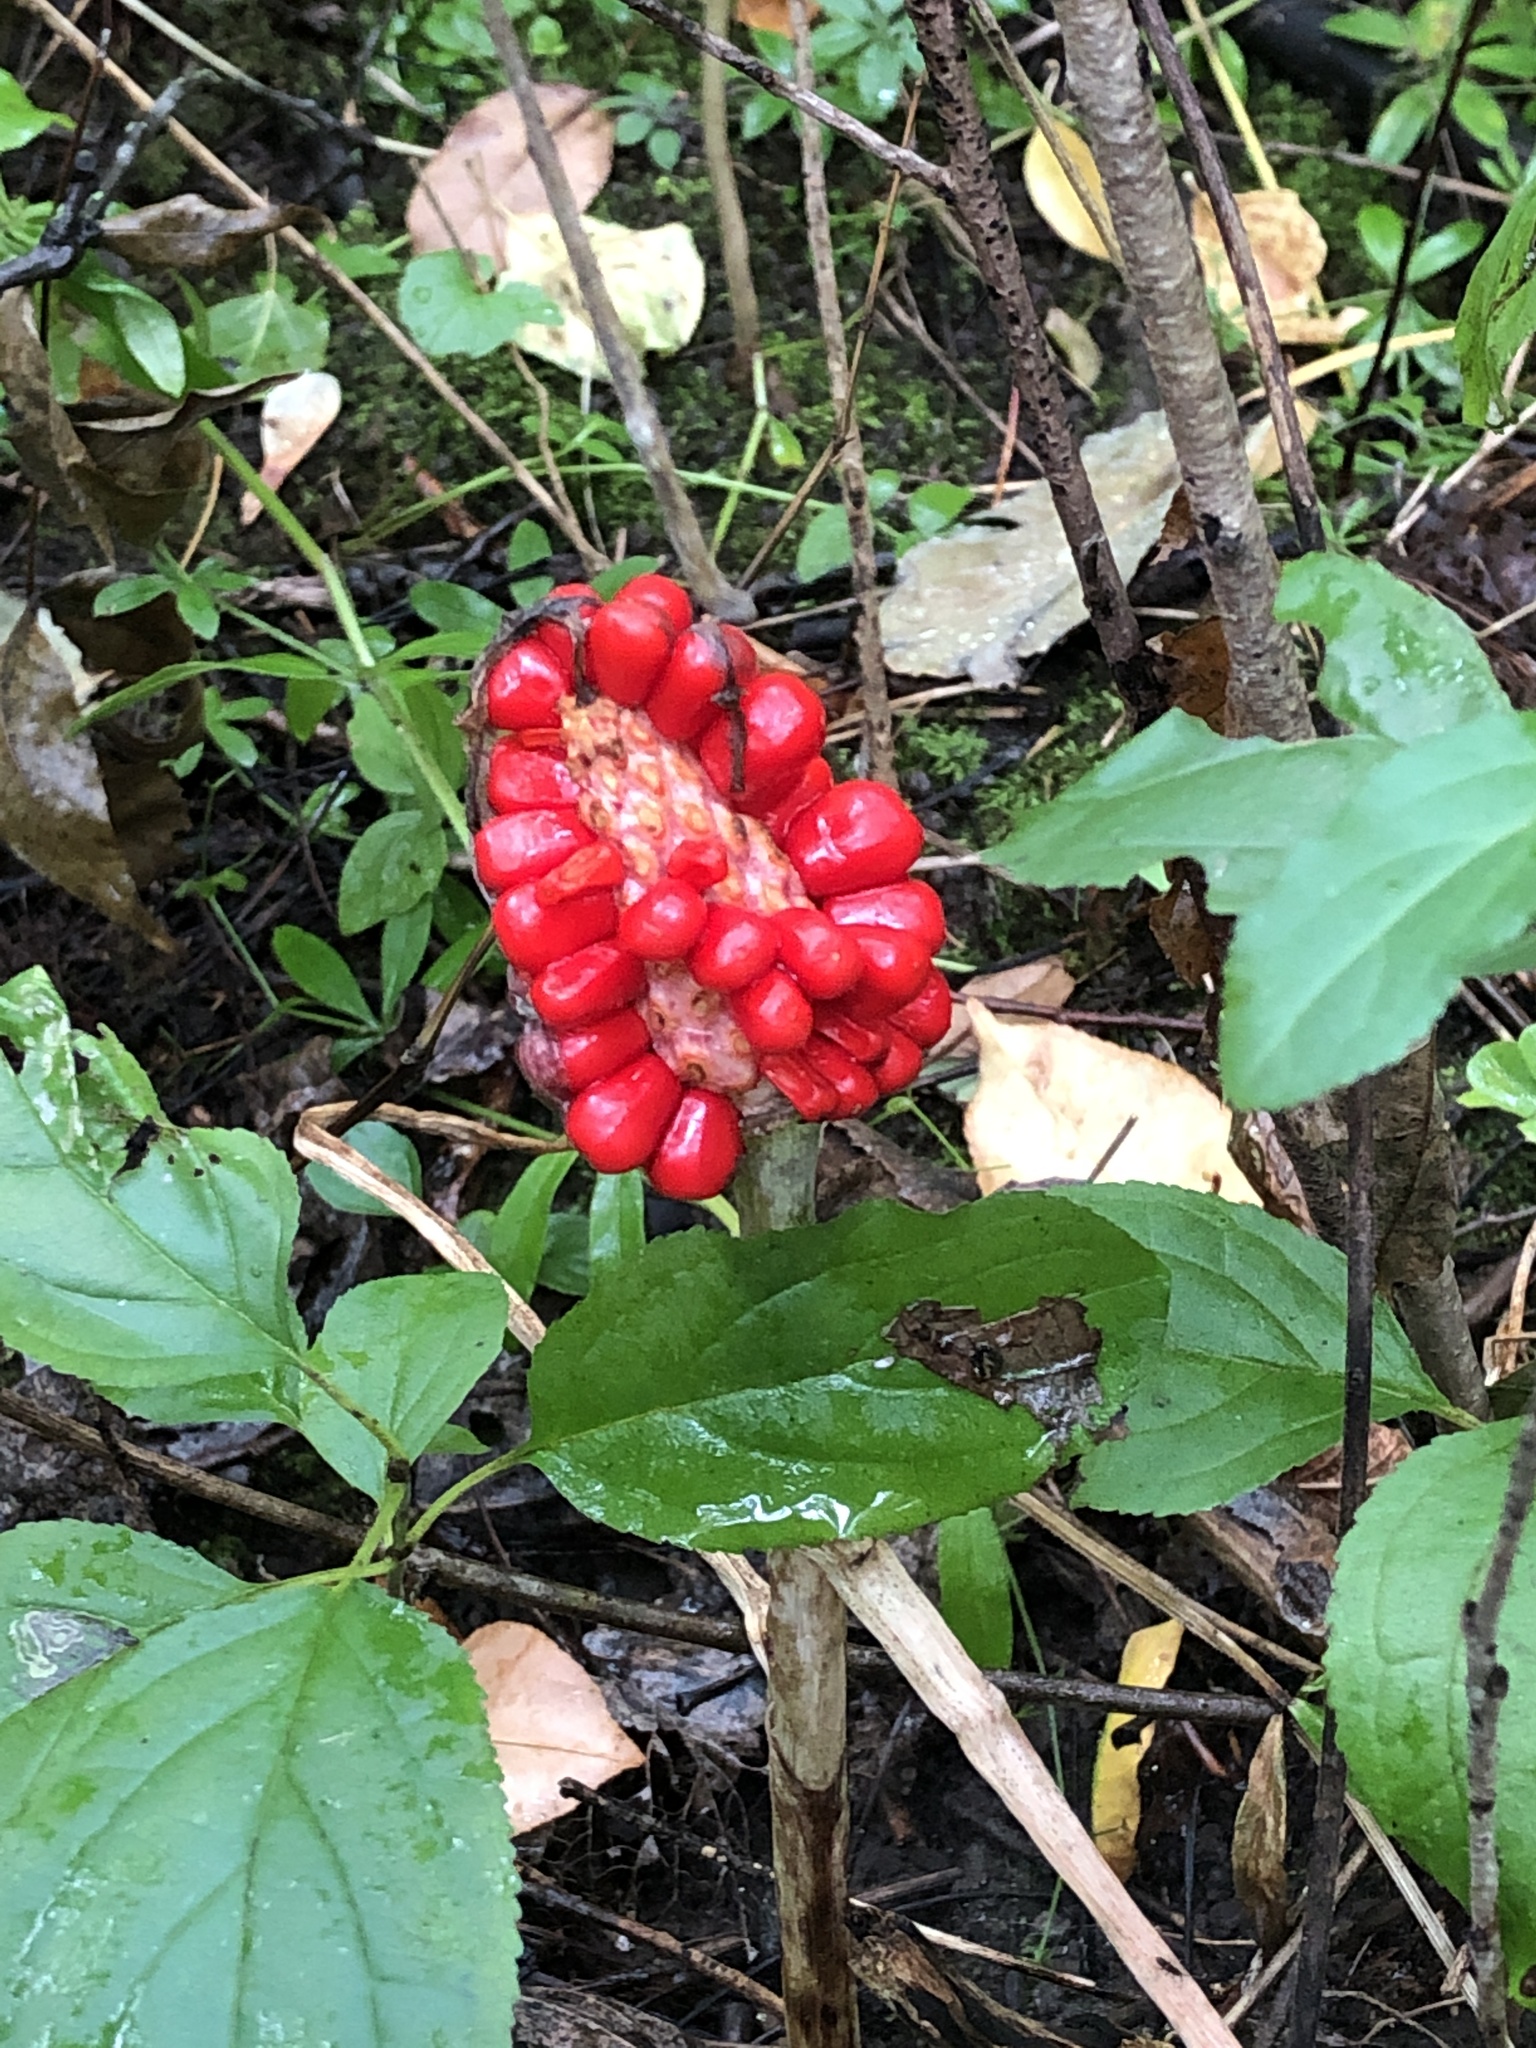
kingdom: Plantae
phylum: Tracheophyta
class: Liliopsida
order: Alismatales
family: Araceae
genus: Arisaema
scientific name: Arisaema triphyllum
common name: Jack-in-the-pulpit
